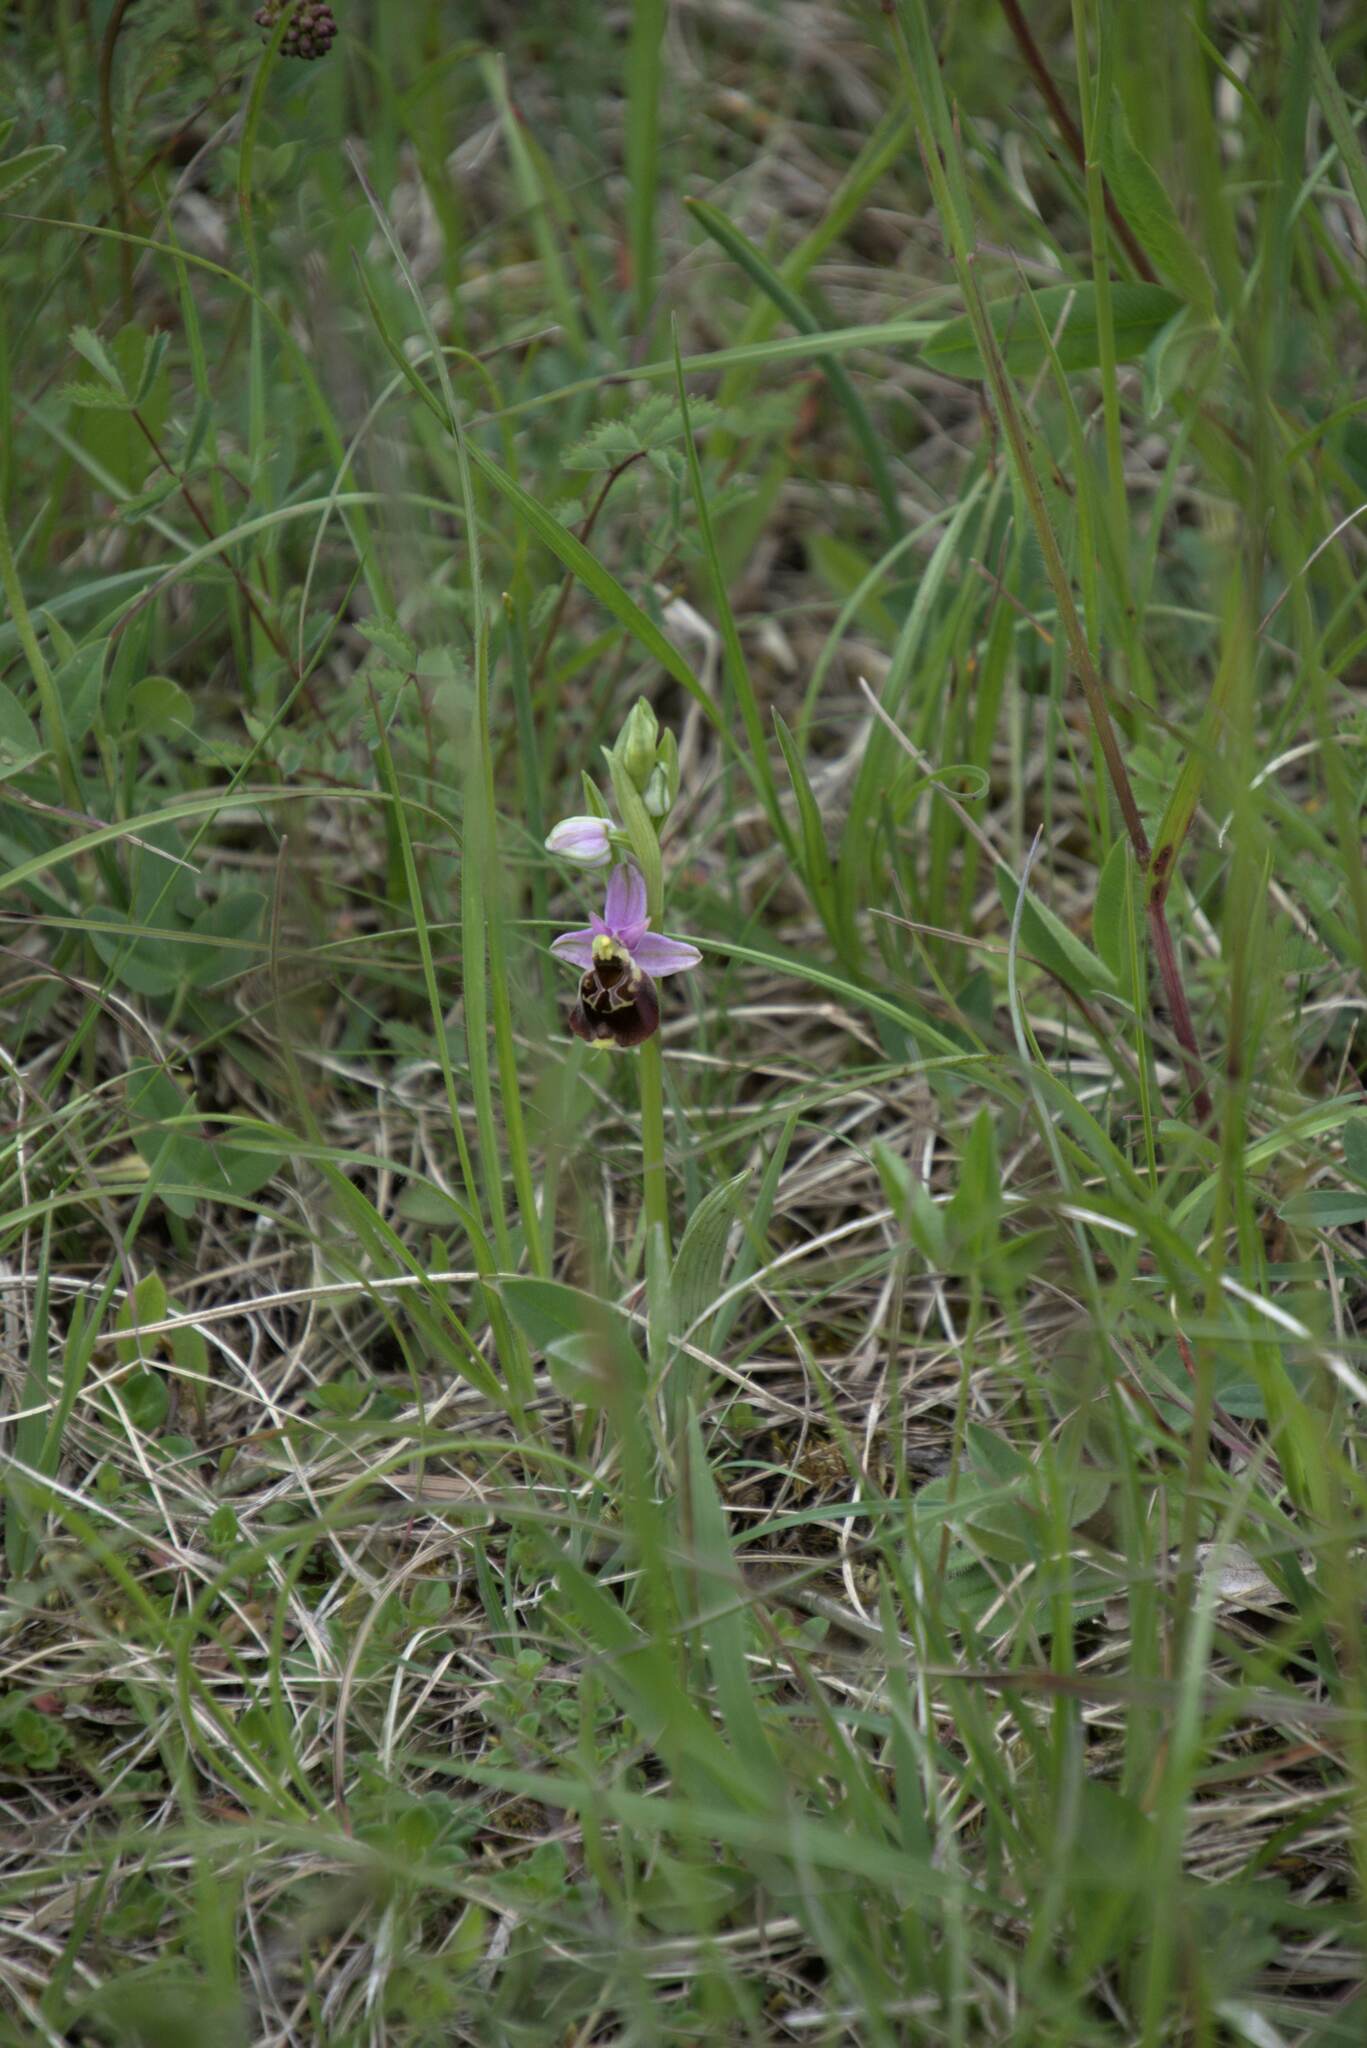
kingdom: Plantae
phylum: Tracheophyta
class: Liliopsida
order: Asparagales
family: Orchidaceae
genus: Ophrys
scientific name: Ophrys holosericea
